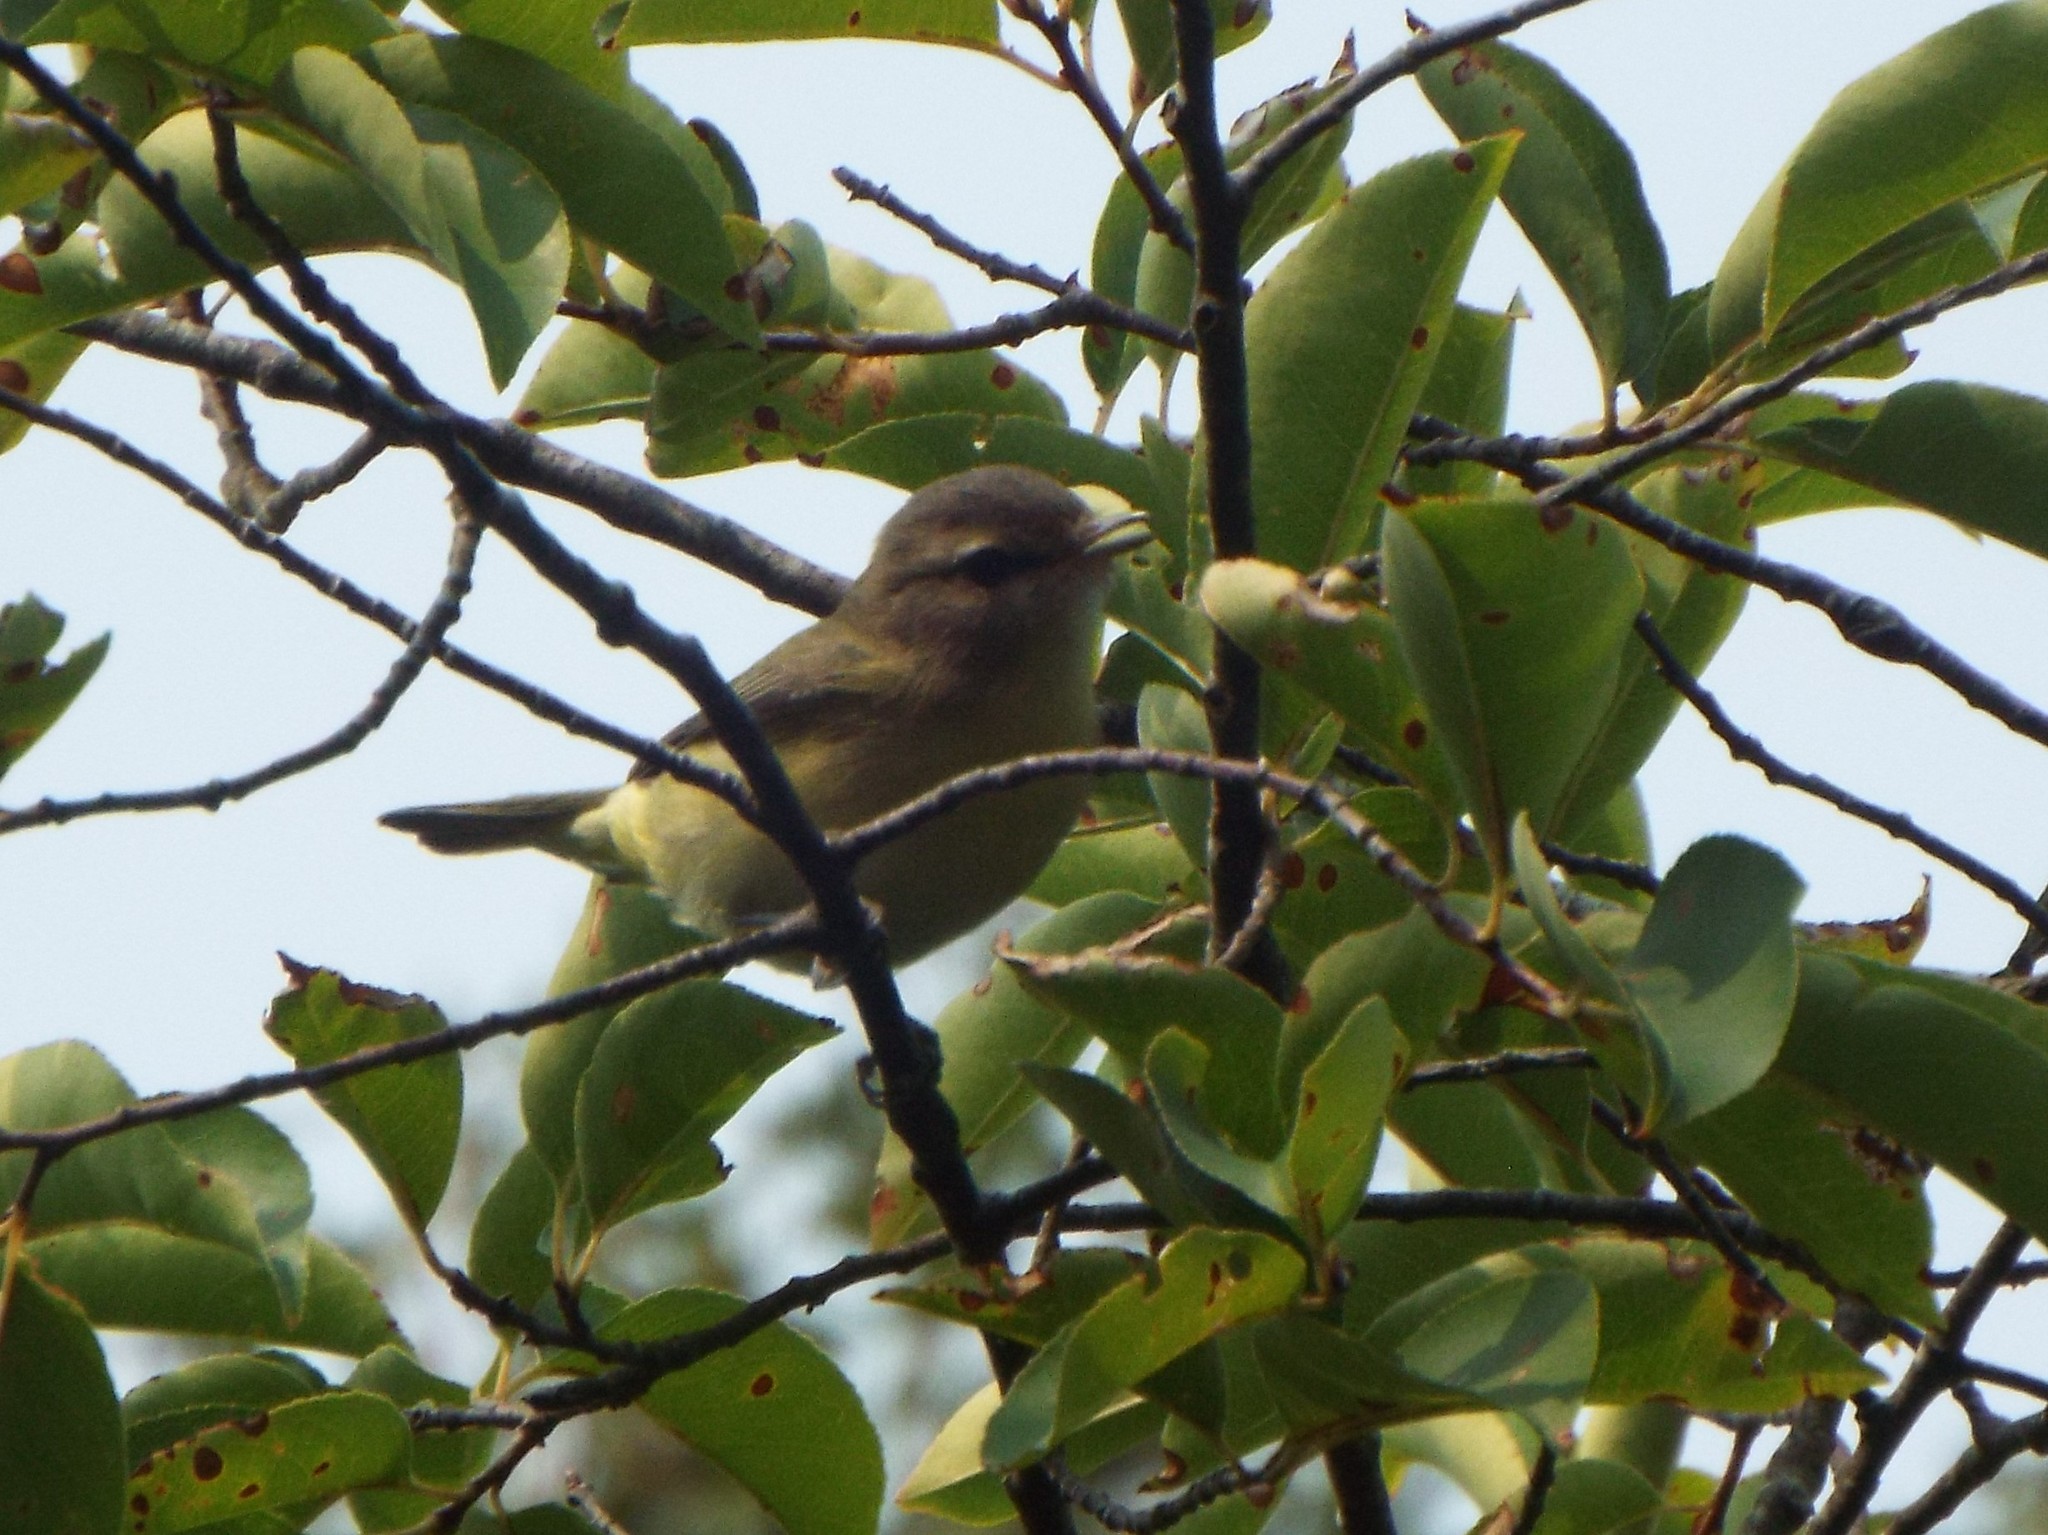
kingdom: Animalia
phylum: Chordata
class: Aves
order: Passeriformes
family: Vireonidae
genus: Vireo
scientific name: Vireo philadelphicus
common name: Philadelphia vireo
